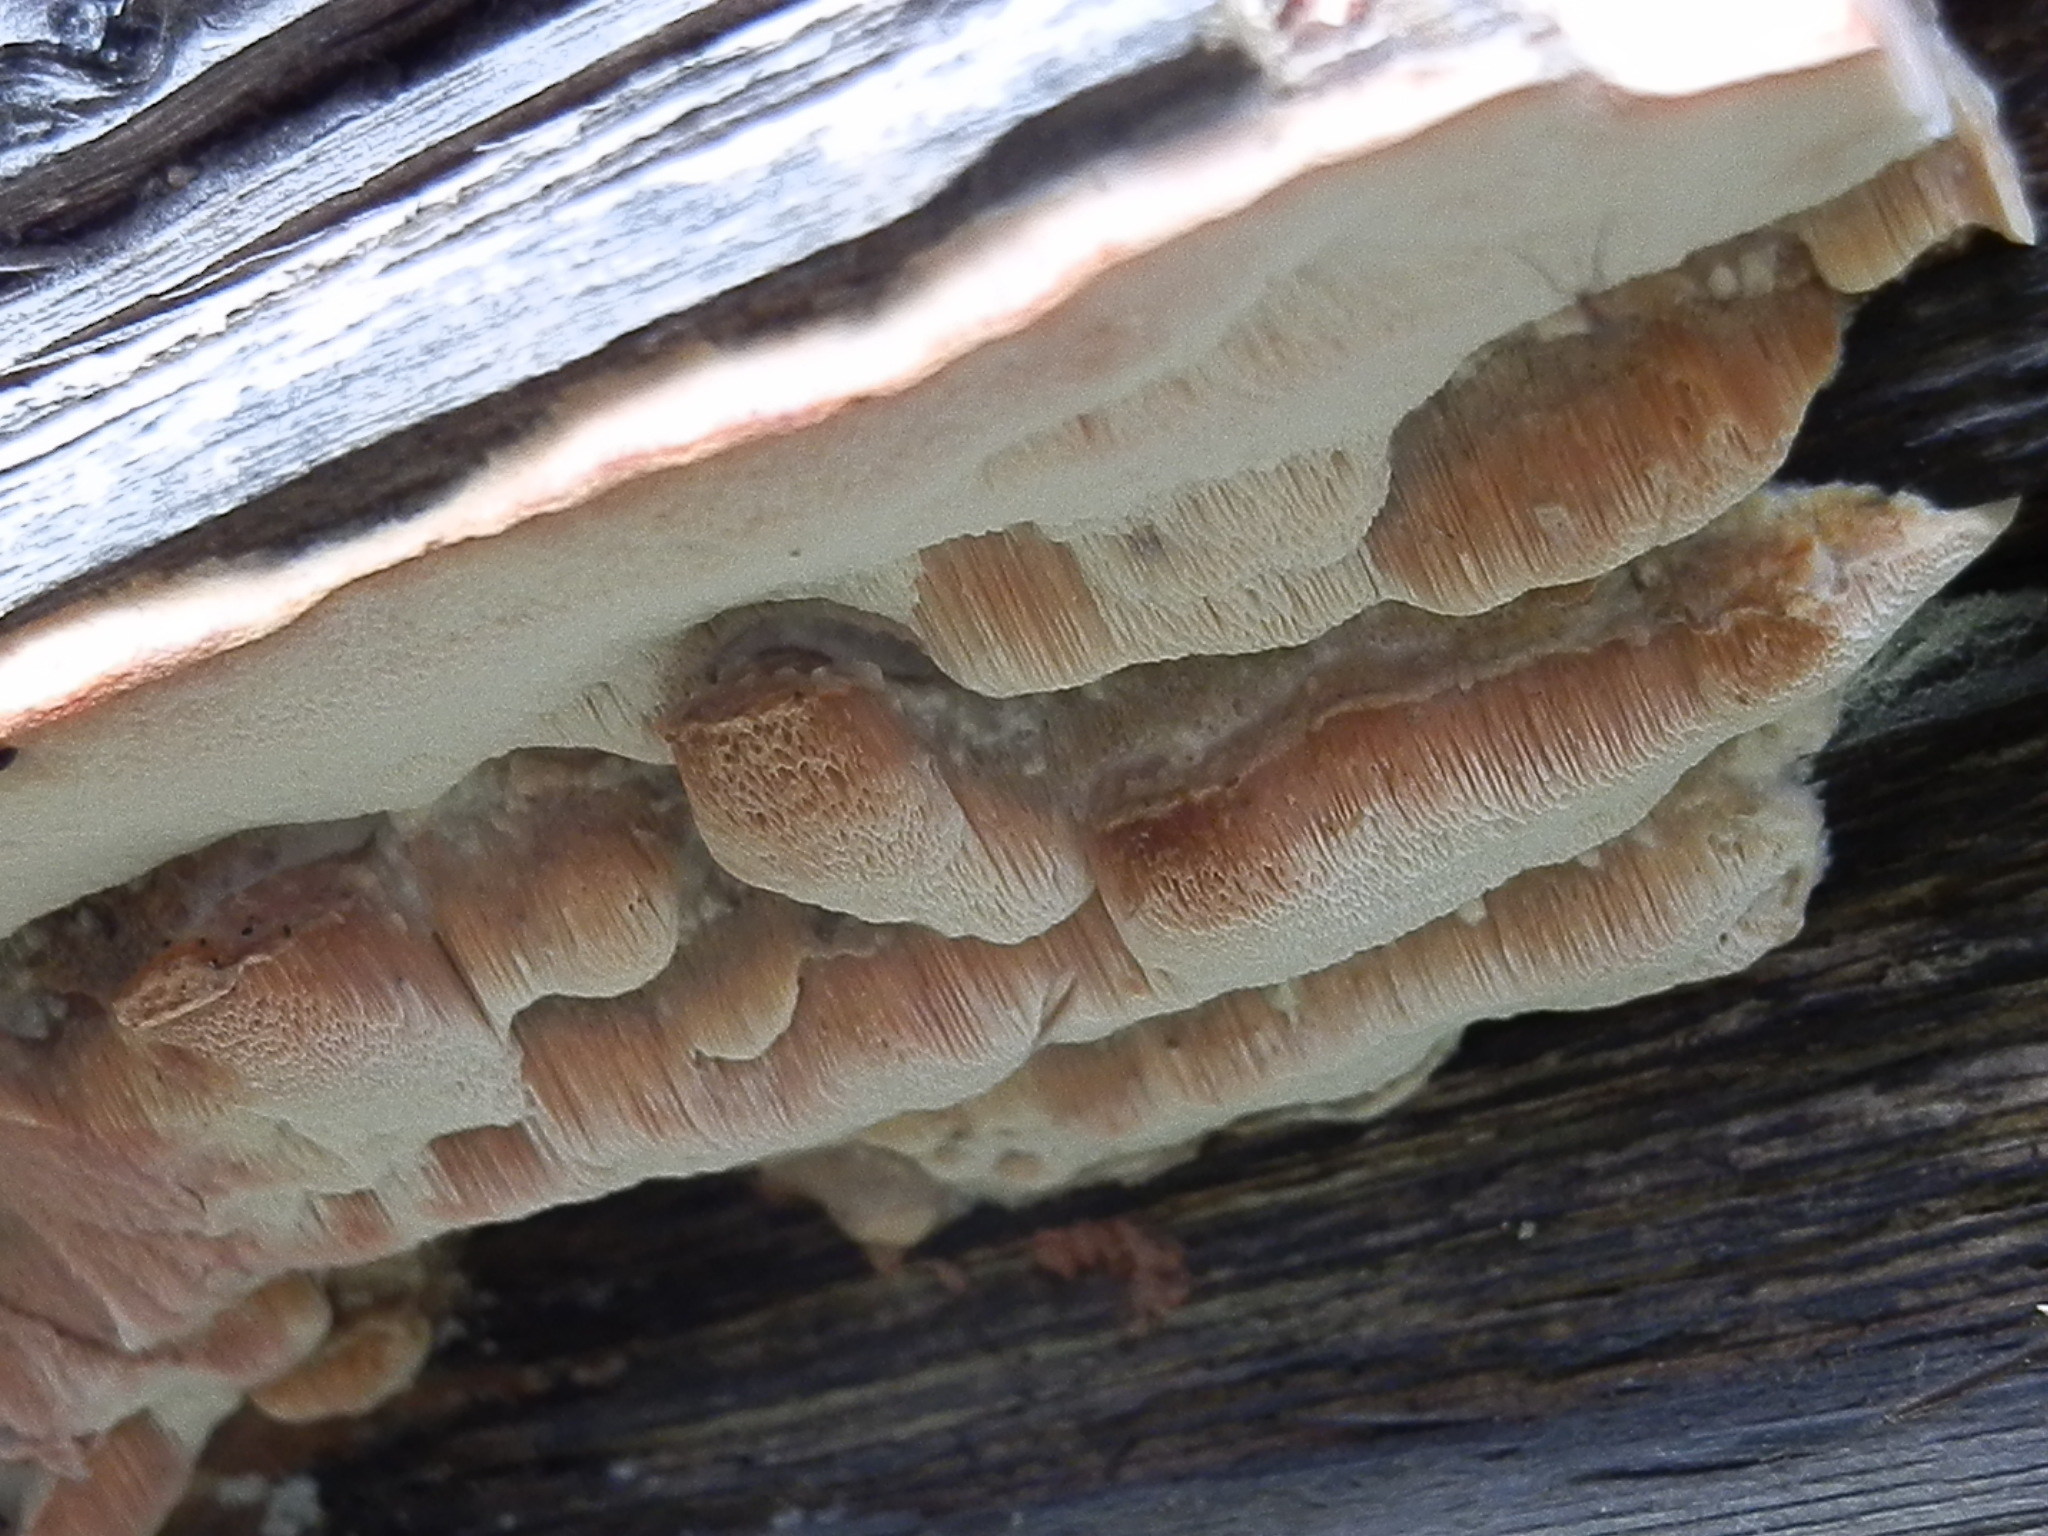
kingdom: Fungi
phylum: Basidiomycota
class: Agaricomycetes
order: Polyporales
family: Irpicaceae
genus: Leptoporus
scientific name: Leptoporus mollis
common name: Soft bracket
